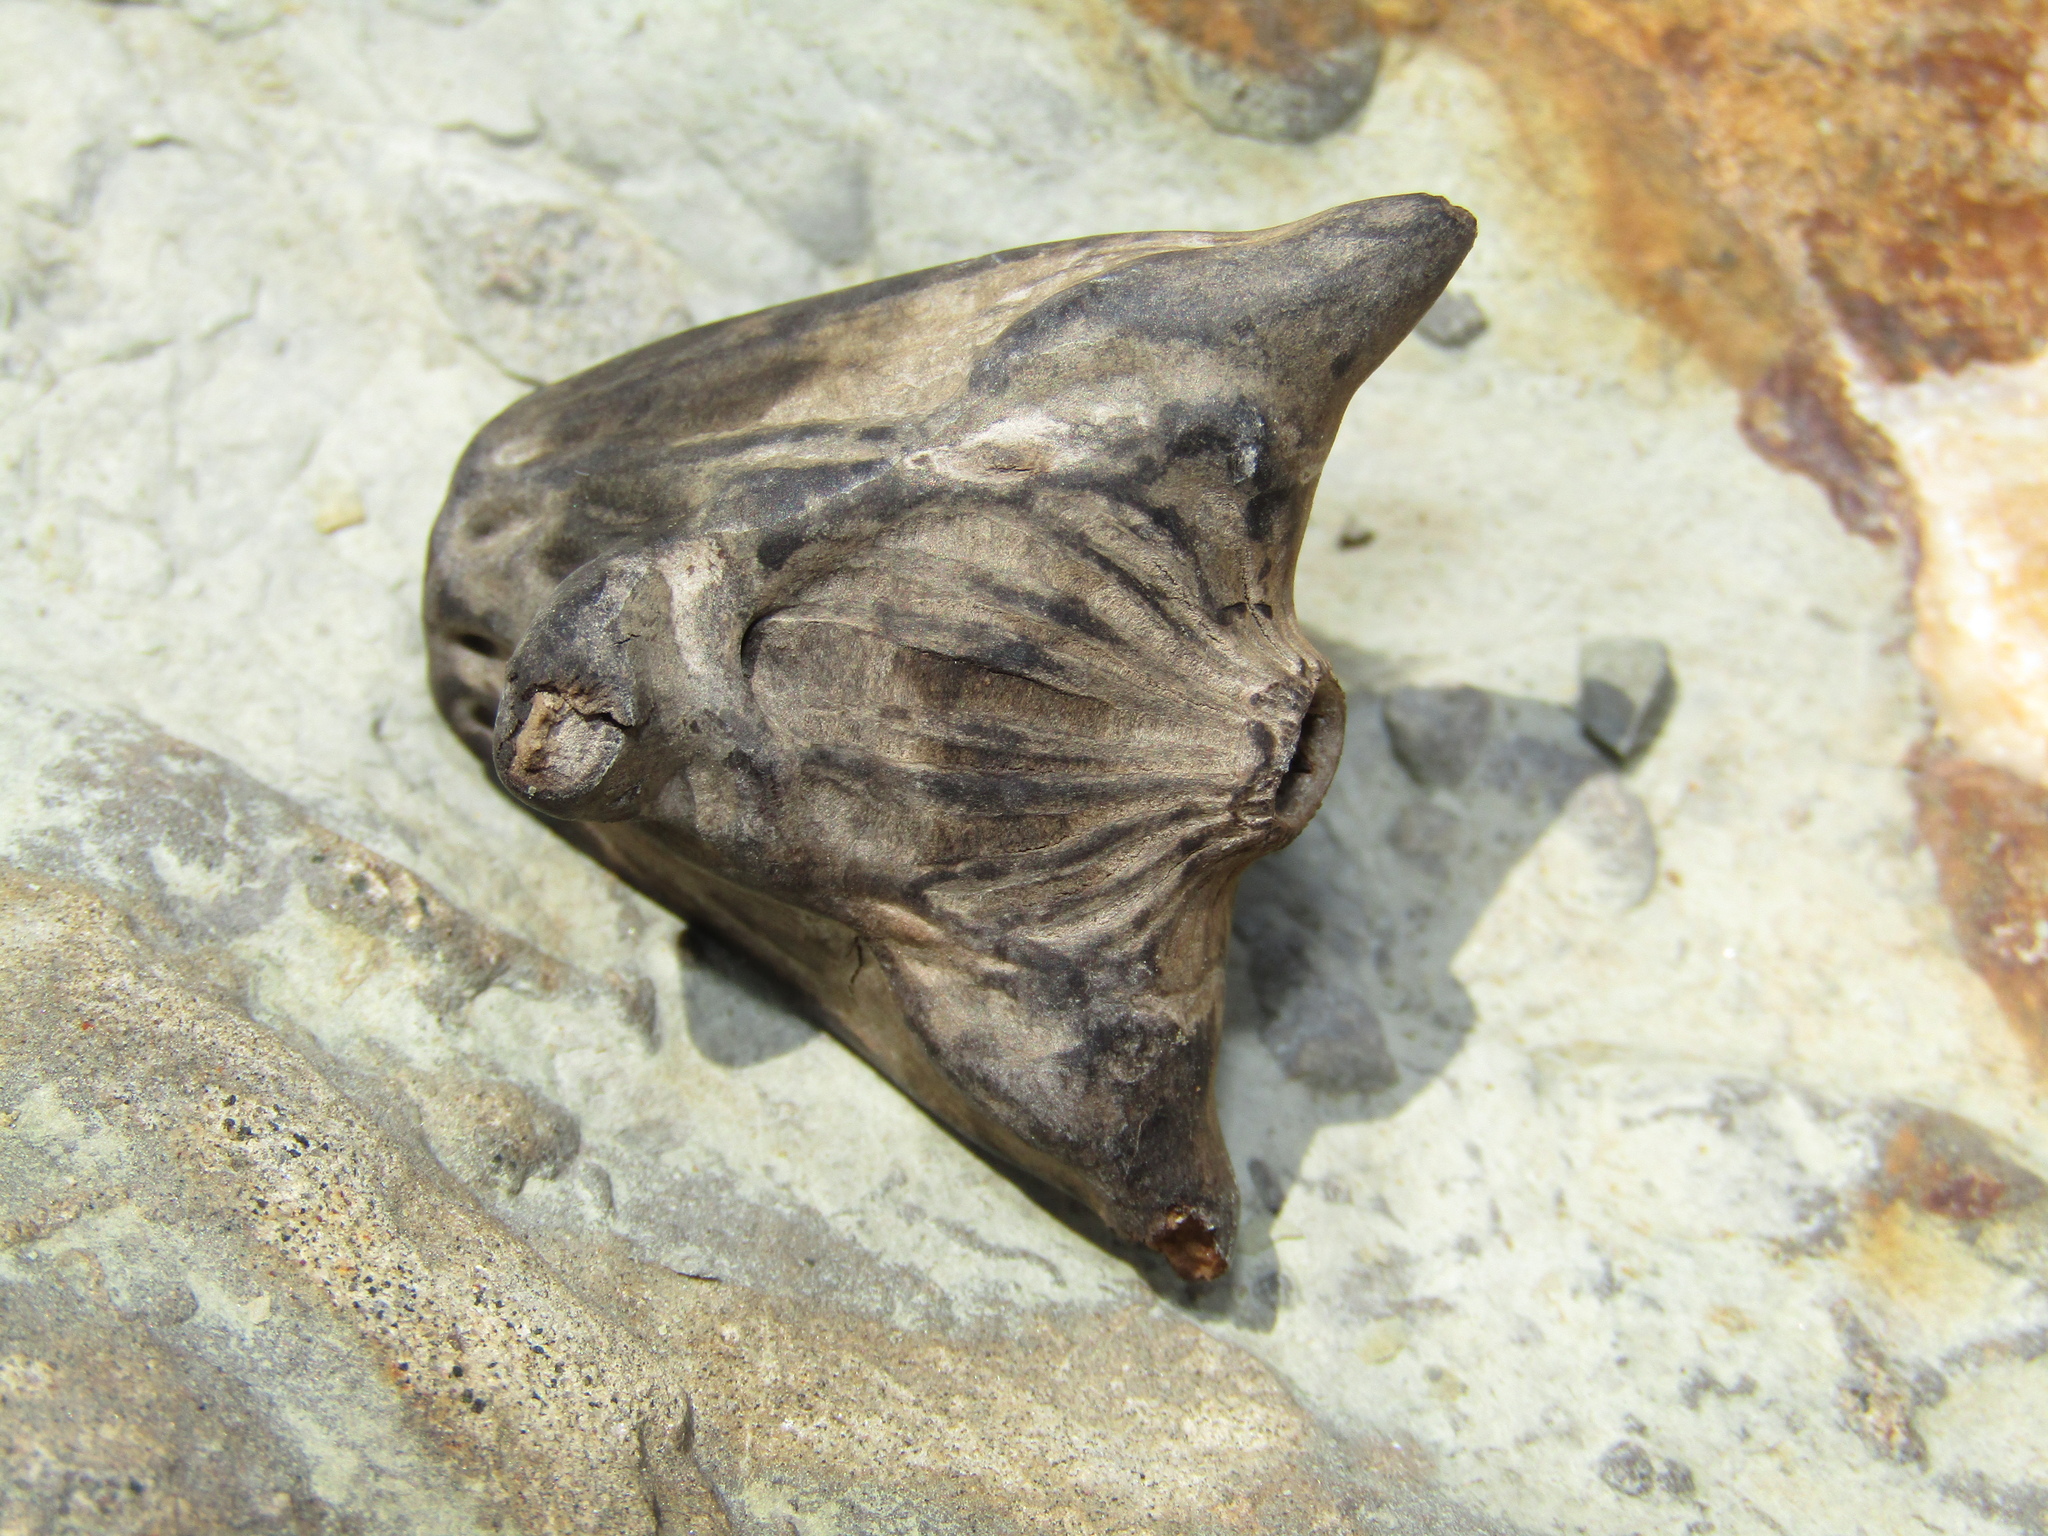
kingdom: Plantae
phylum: Tracheophyta
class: Magnoliopsida
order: Myrtales
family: Lythraceae
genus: Trapa
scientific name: Trapa natans
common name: Water chestnut
